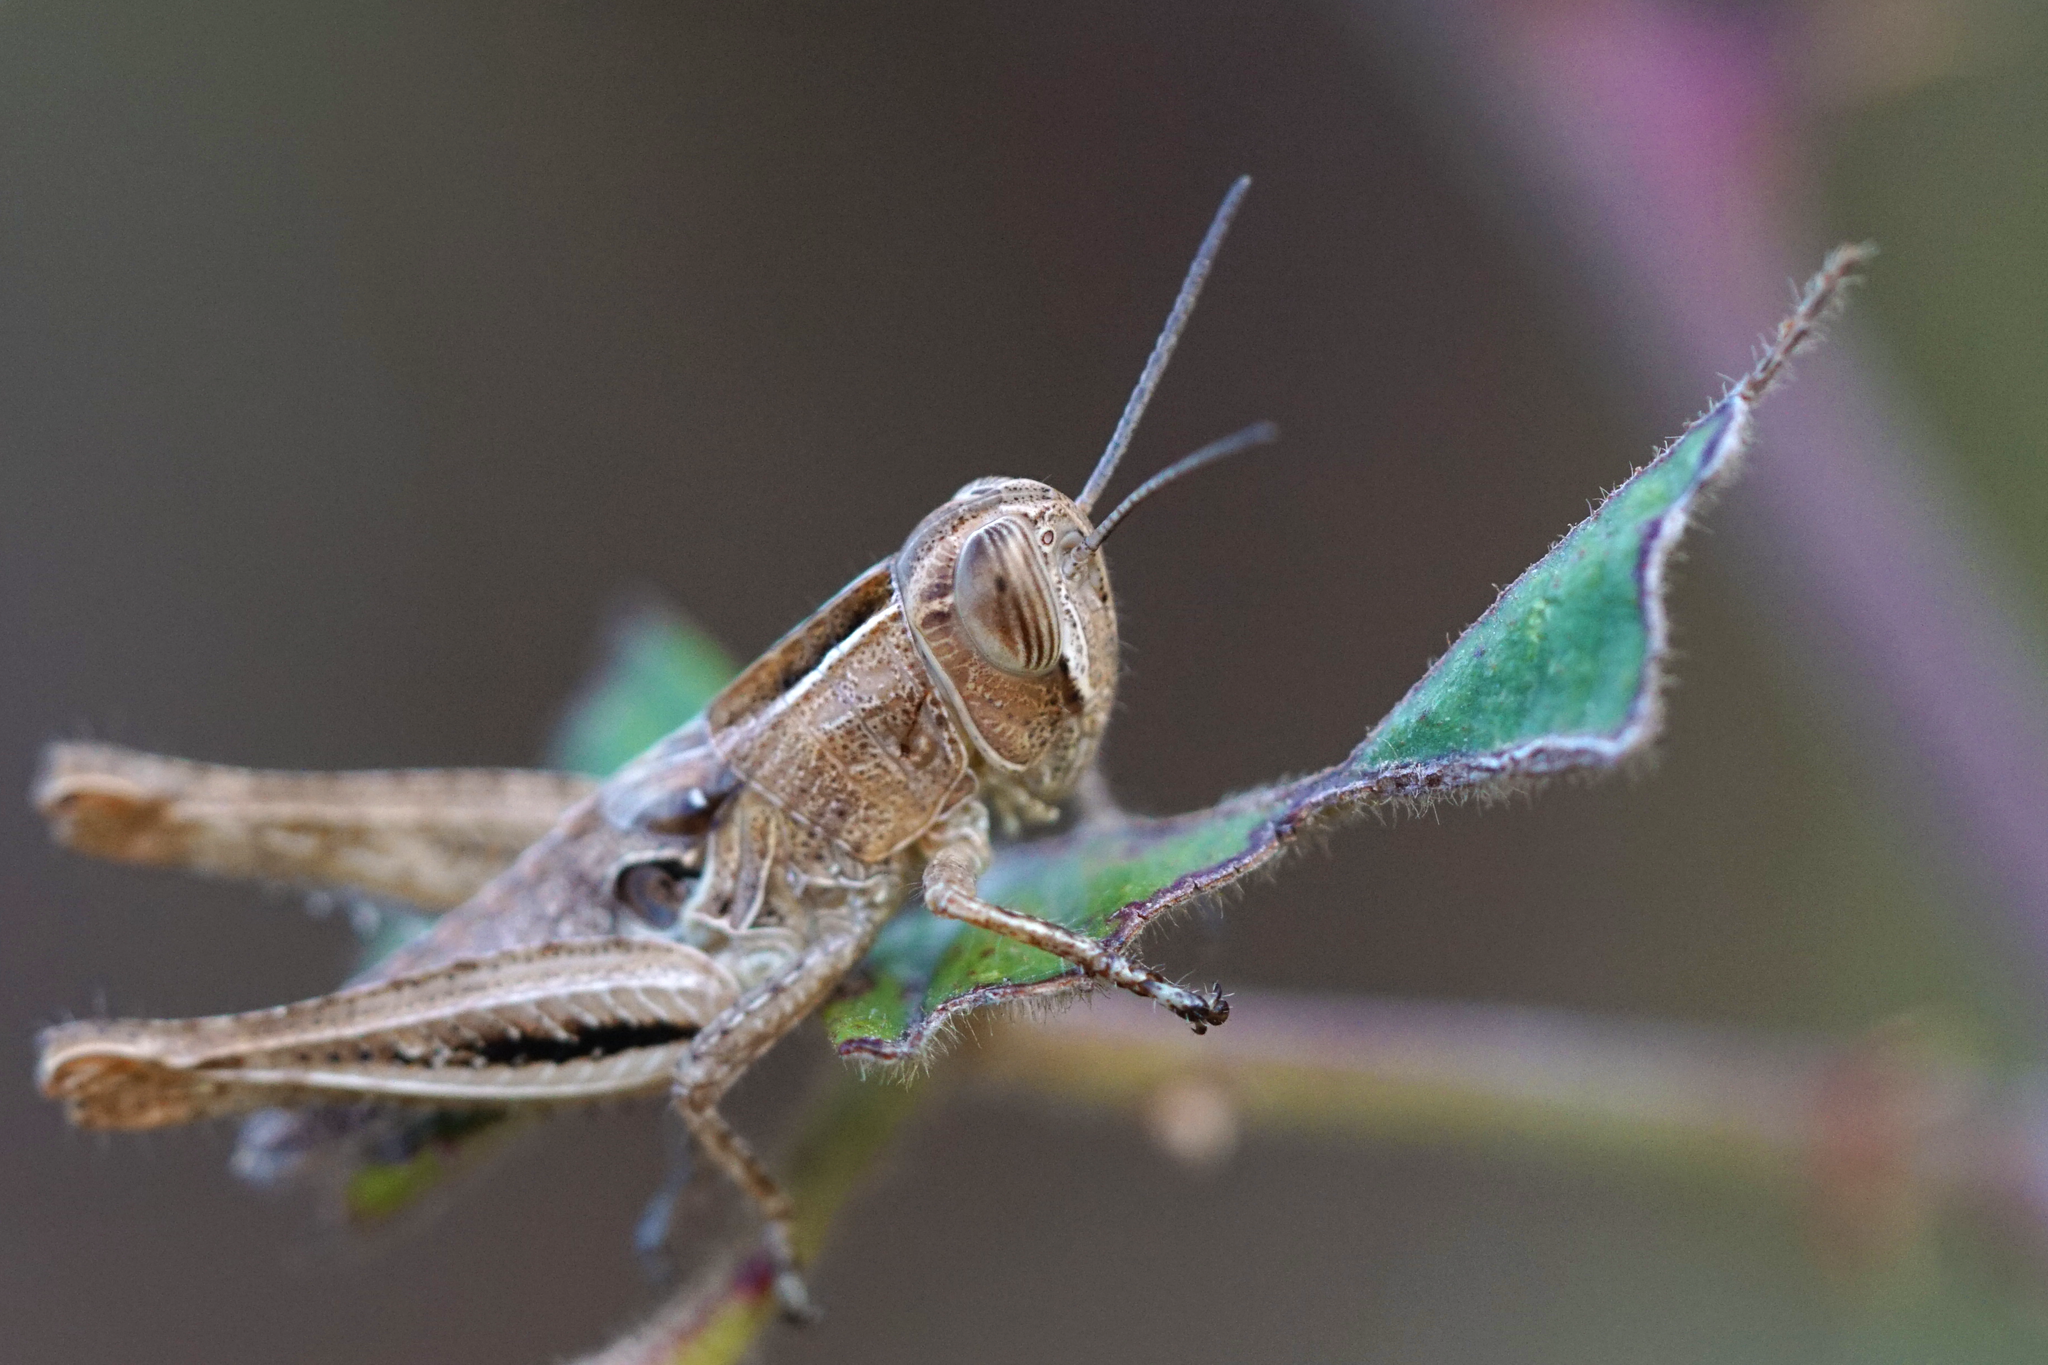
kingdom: Animalia
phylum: Arthropoda
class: Insecta
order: Orthoptera
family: Acrididae
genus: Eyprepocnemis
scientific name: Eyprepocnemis plorans
